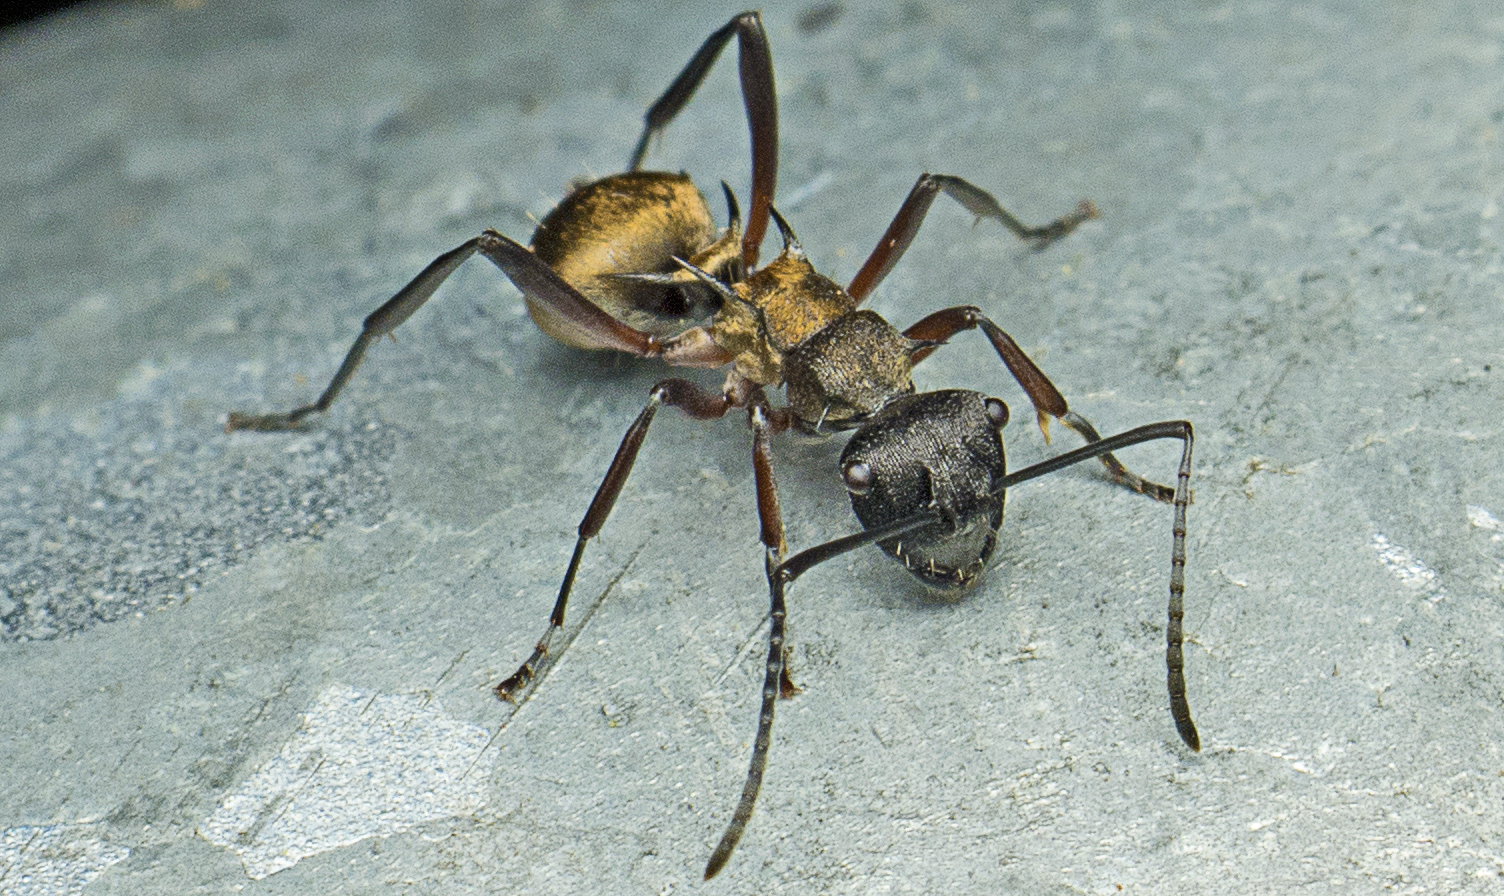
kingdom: Animalia
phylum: Arthropoda
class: Insecta
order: Hymenoptera
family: Formicidae
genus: Polyrhachis
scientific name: Polyrhachis rufifemur
